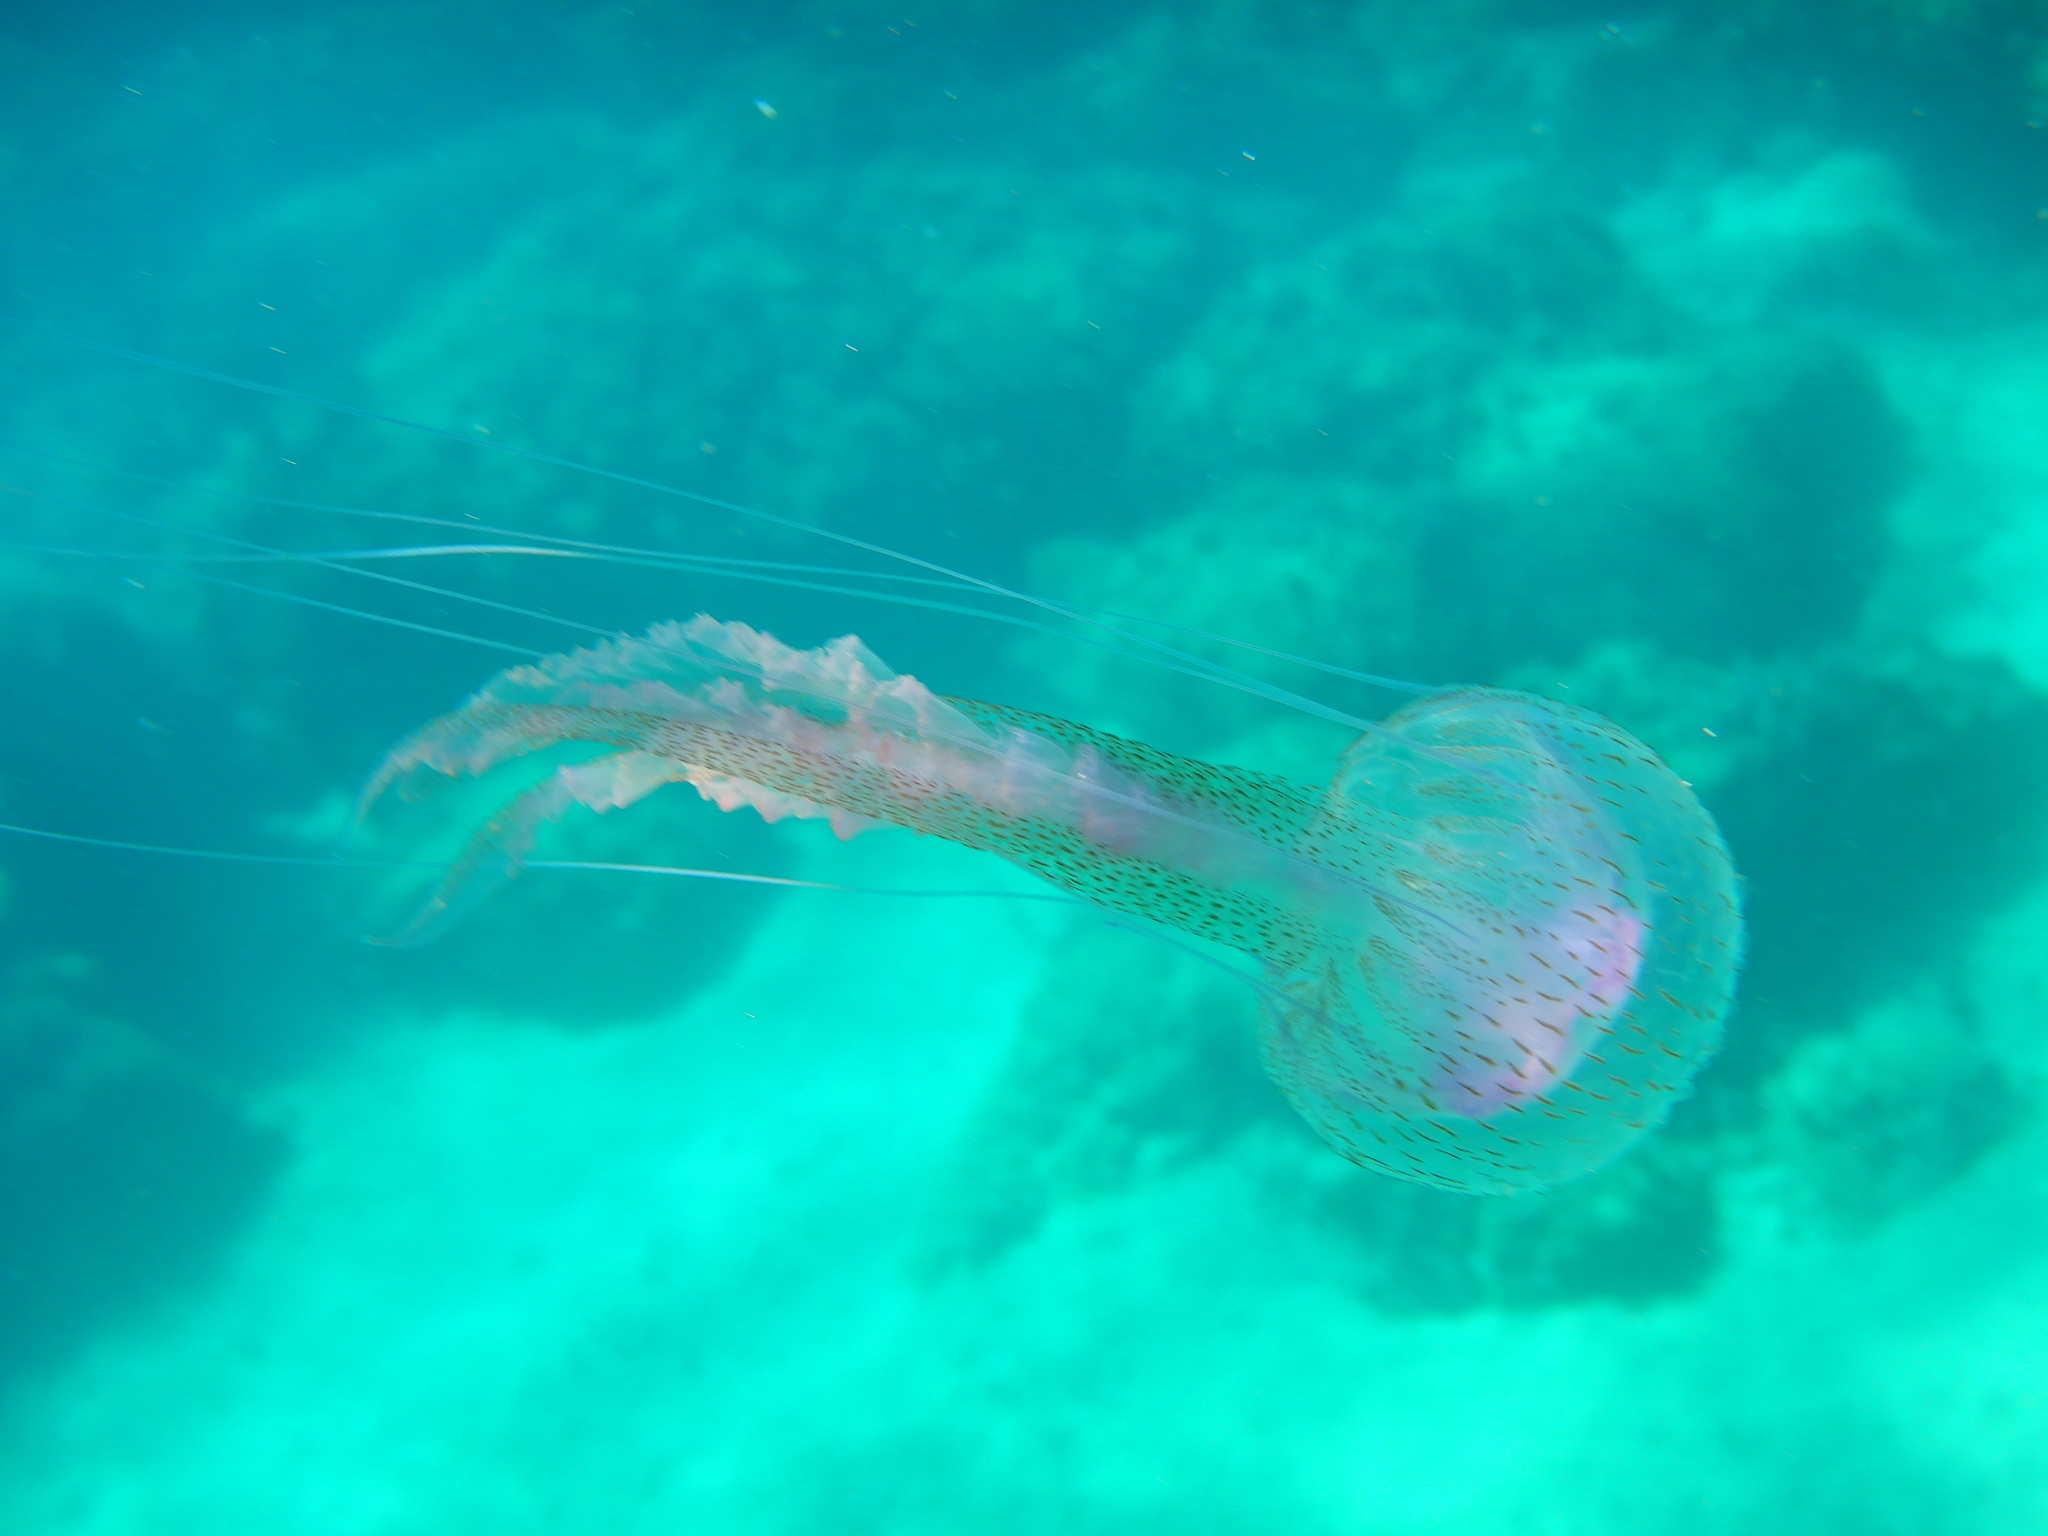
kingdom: Animalia
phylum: Cnidaria
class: Scyphozoa
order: Semaeostomeae
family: Pelagiidae
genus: Pelagia
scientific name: Pelagia noctiluca
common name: Mauve stinger
